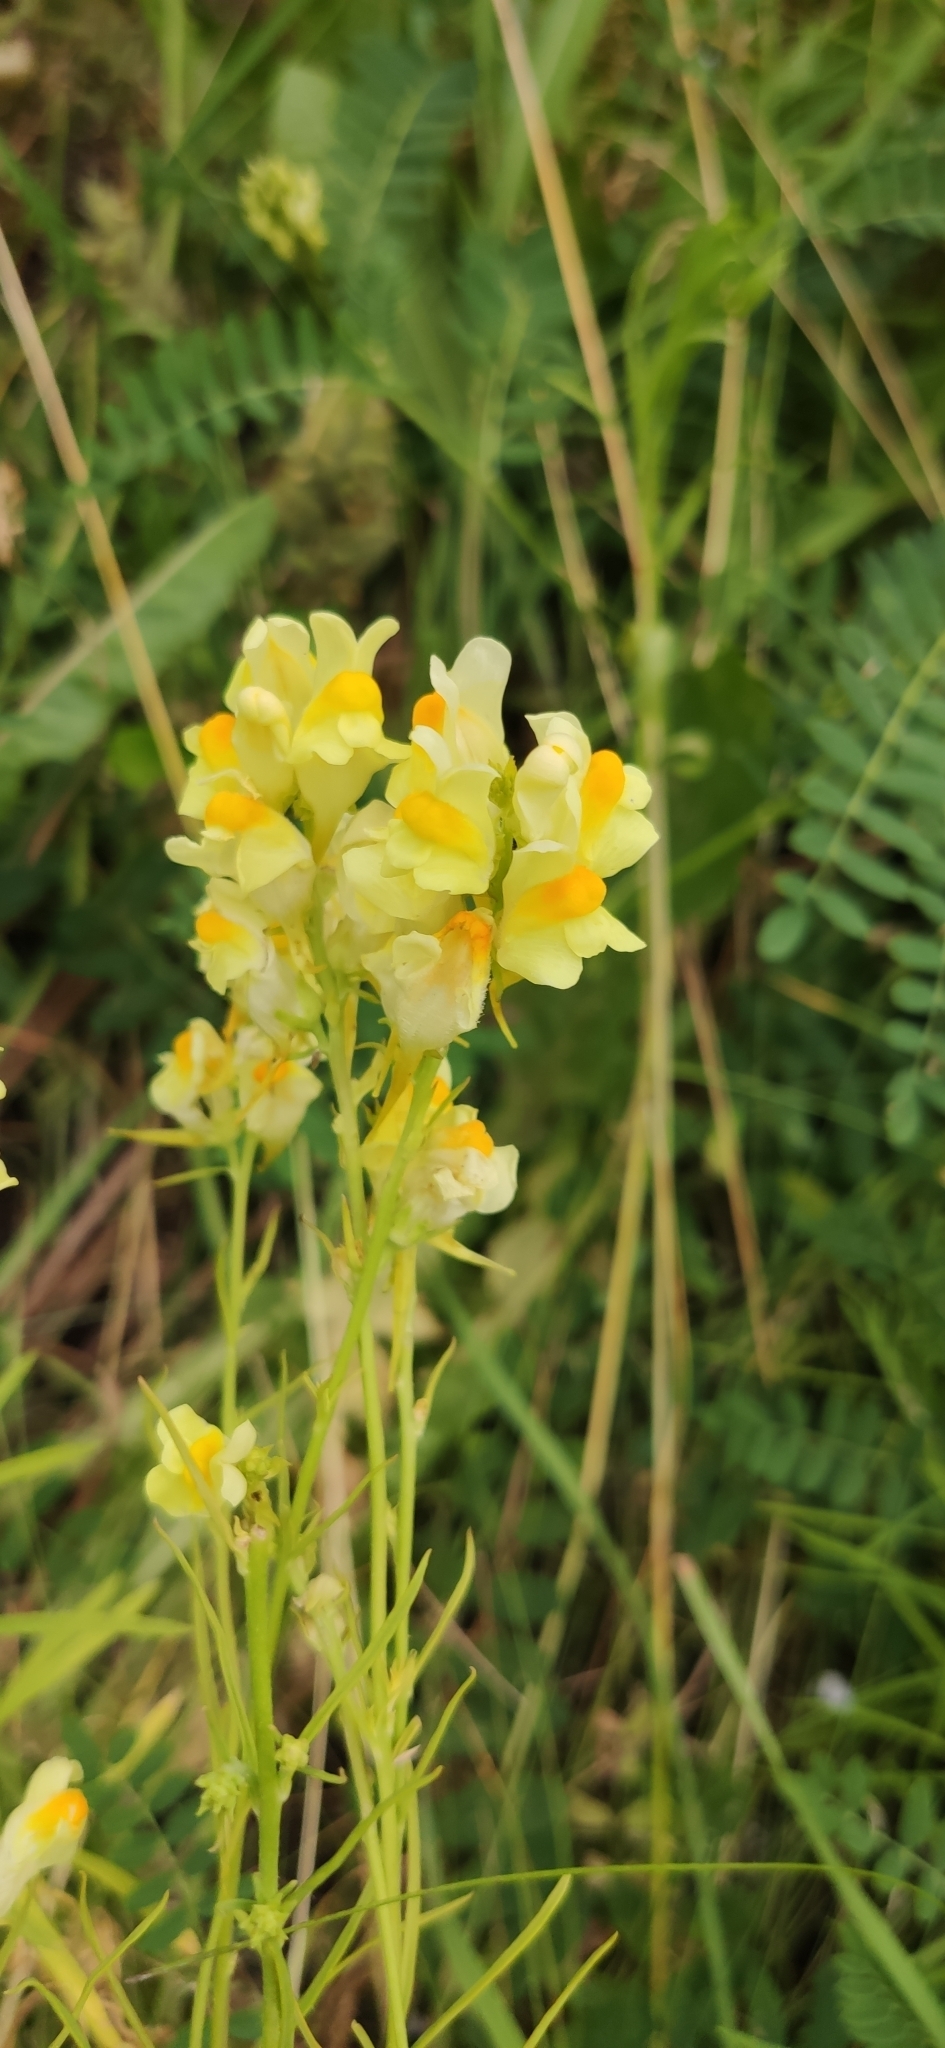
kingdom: Plantae
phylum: Tracheophyta
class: Magnoliopsida
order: Lamiales
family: Plantaginaceae
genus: Linaria
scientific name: Linaria vulgaris
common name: Butter and eggs
